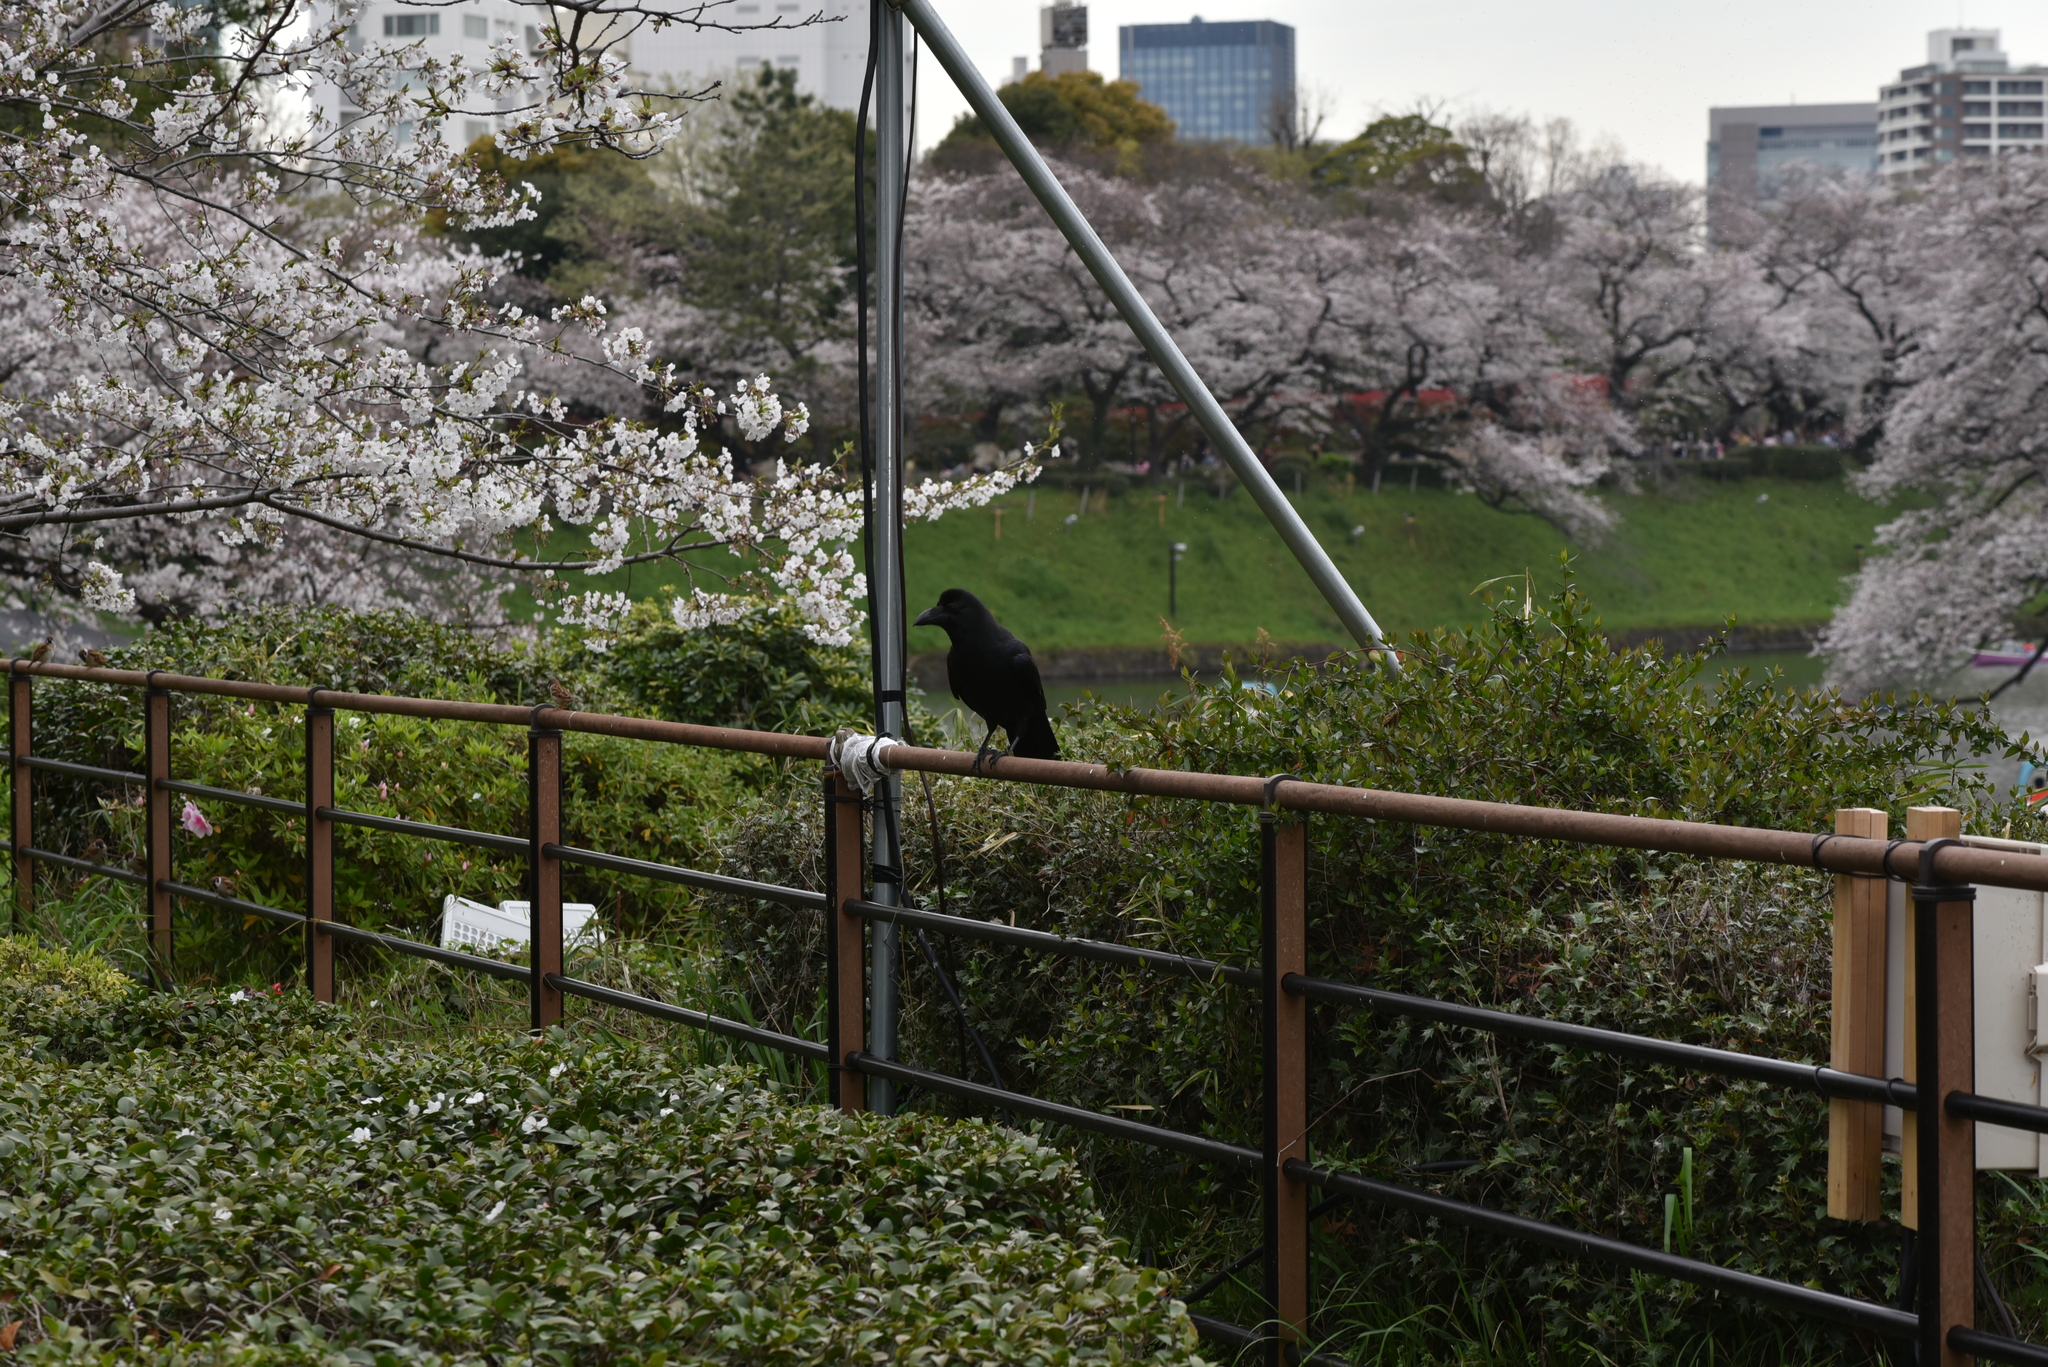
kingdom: Animalia
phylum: Chordata
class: Aves
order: Passeriformes
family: Corvidae
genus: Corvus
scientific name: Corvus macrorhynchos
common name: Large-billed crow
